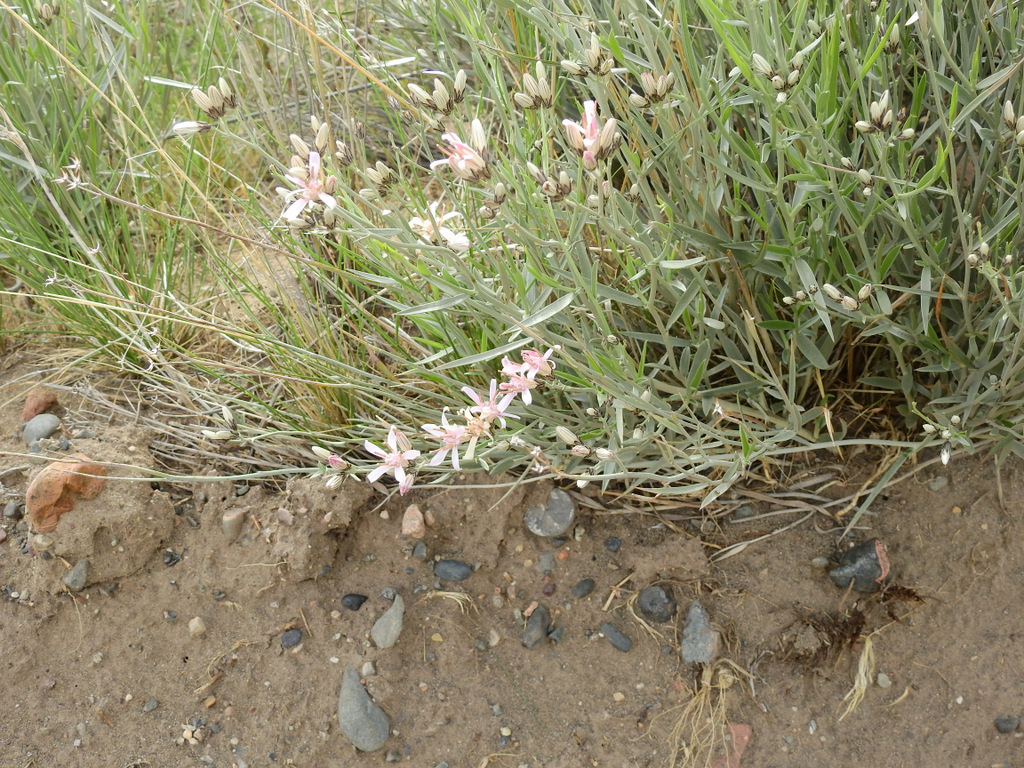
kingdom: Plantae
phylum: Tracheophyta
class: Magnoliopsida
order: Asterales
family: Asteraceae
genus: Hyalis
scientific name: Hyalis argentea
